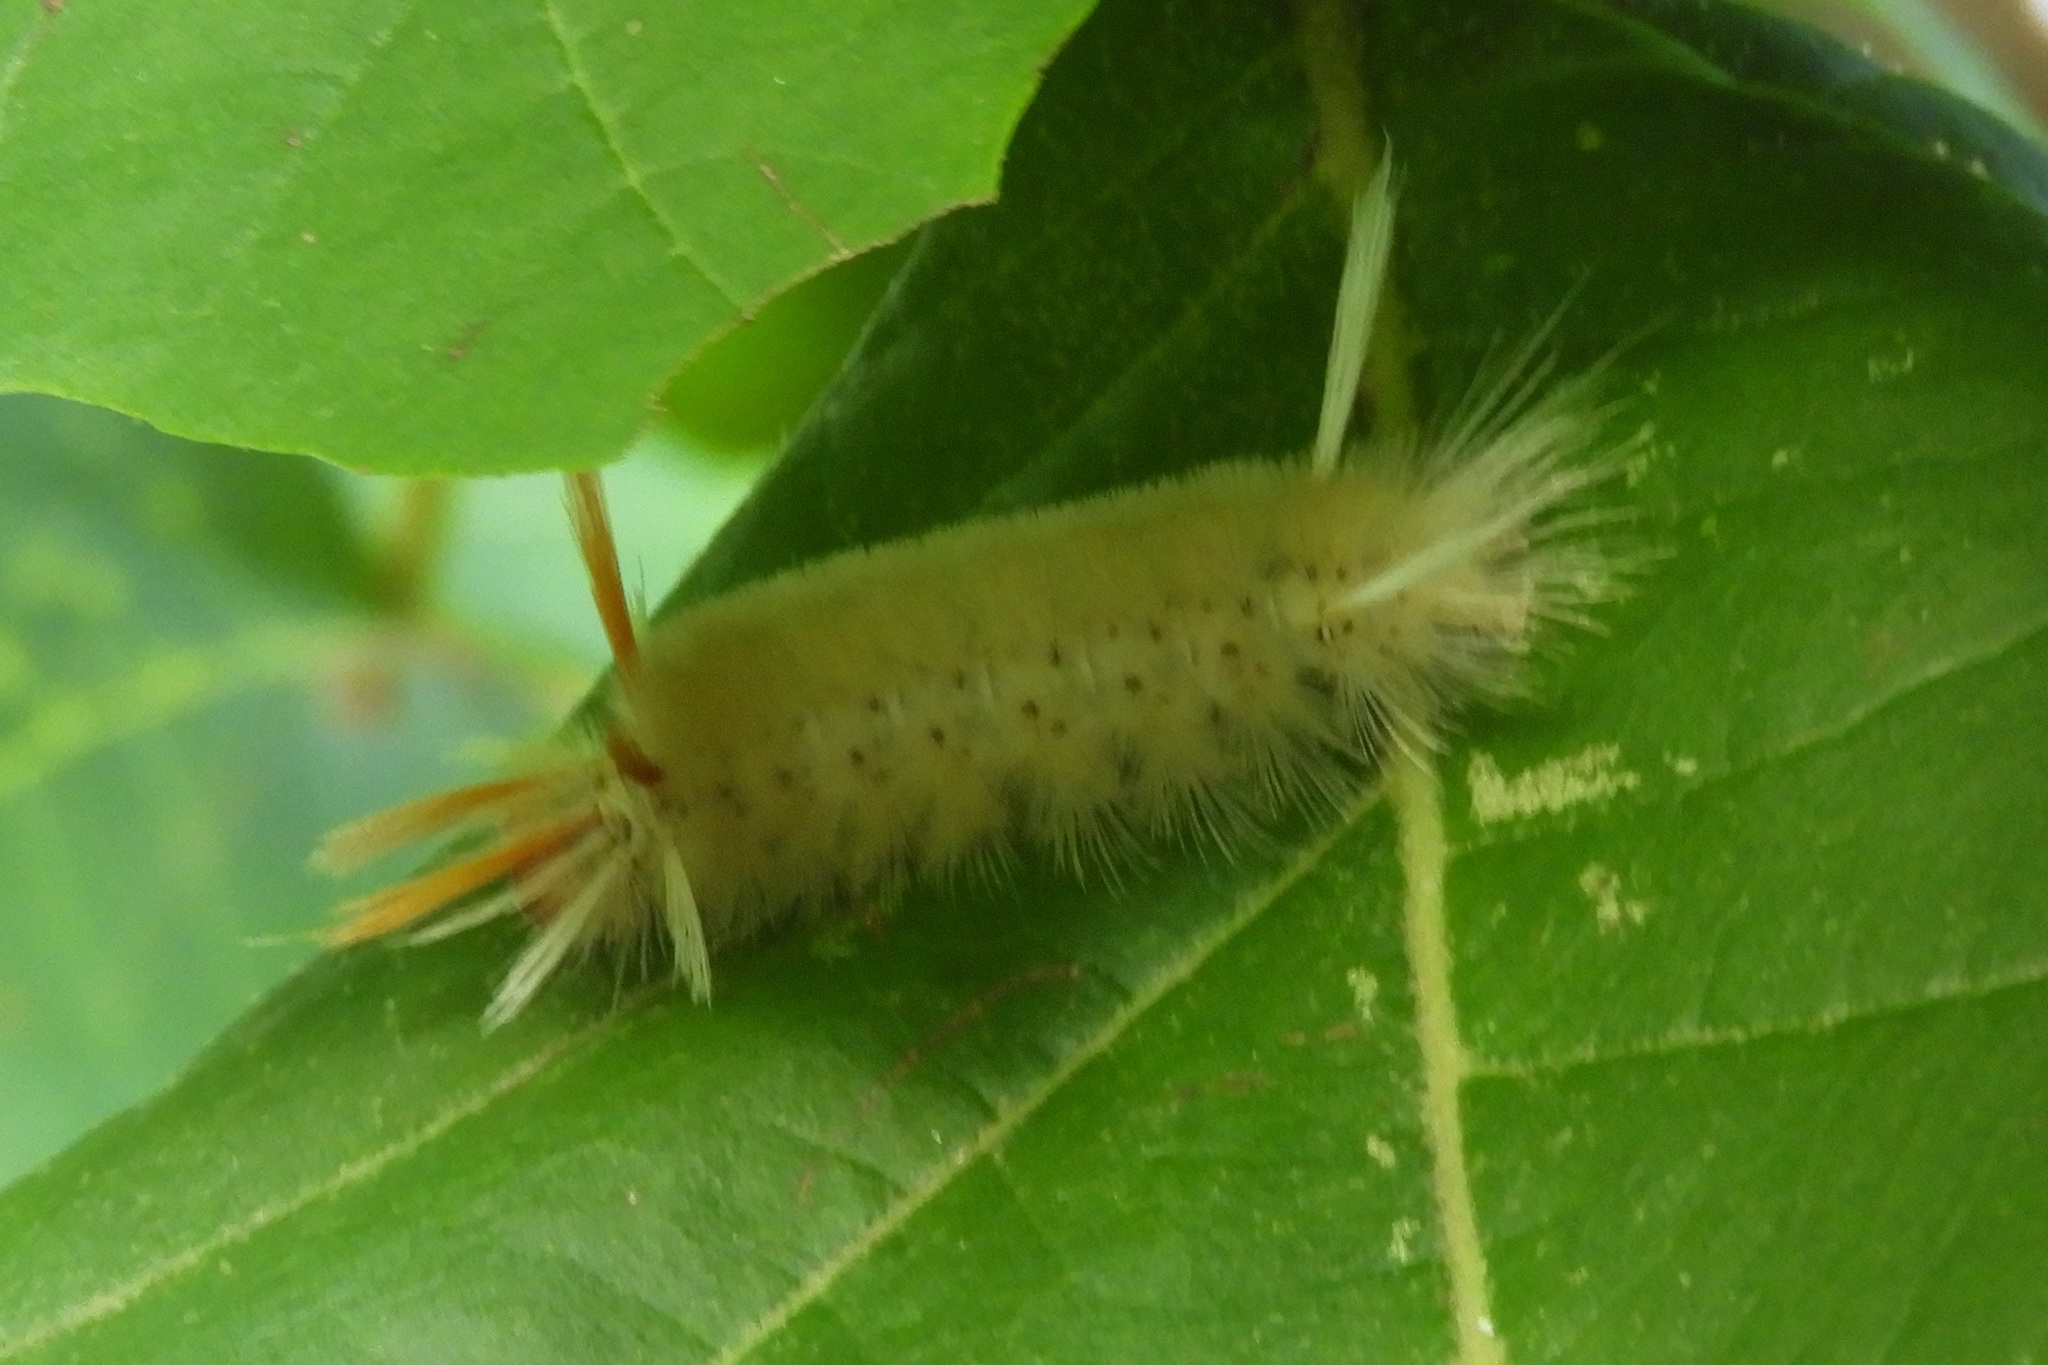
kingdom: Animalia
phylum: Arthropoda
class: Insecta
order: Lepidoptera
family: Erebidae
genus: Halysidota
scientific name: Halysidota harrisii
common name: Sycamore tussock moth
